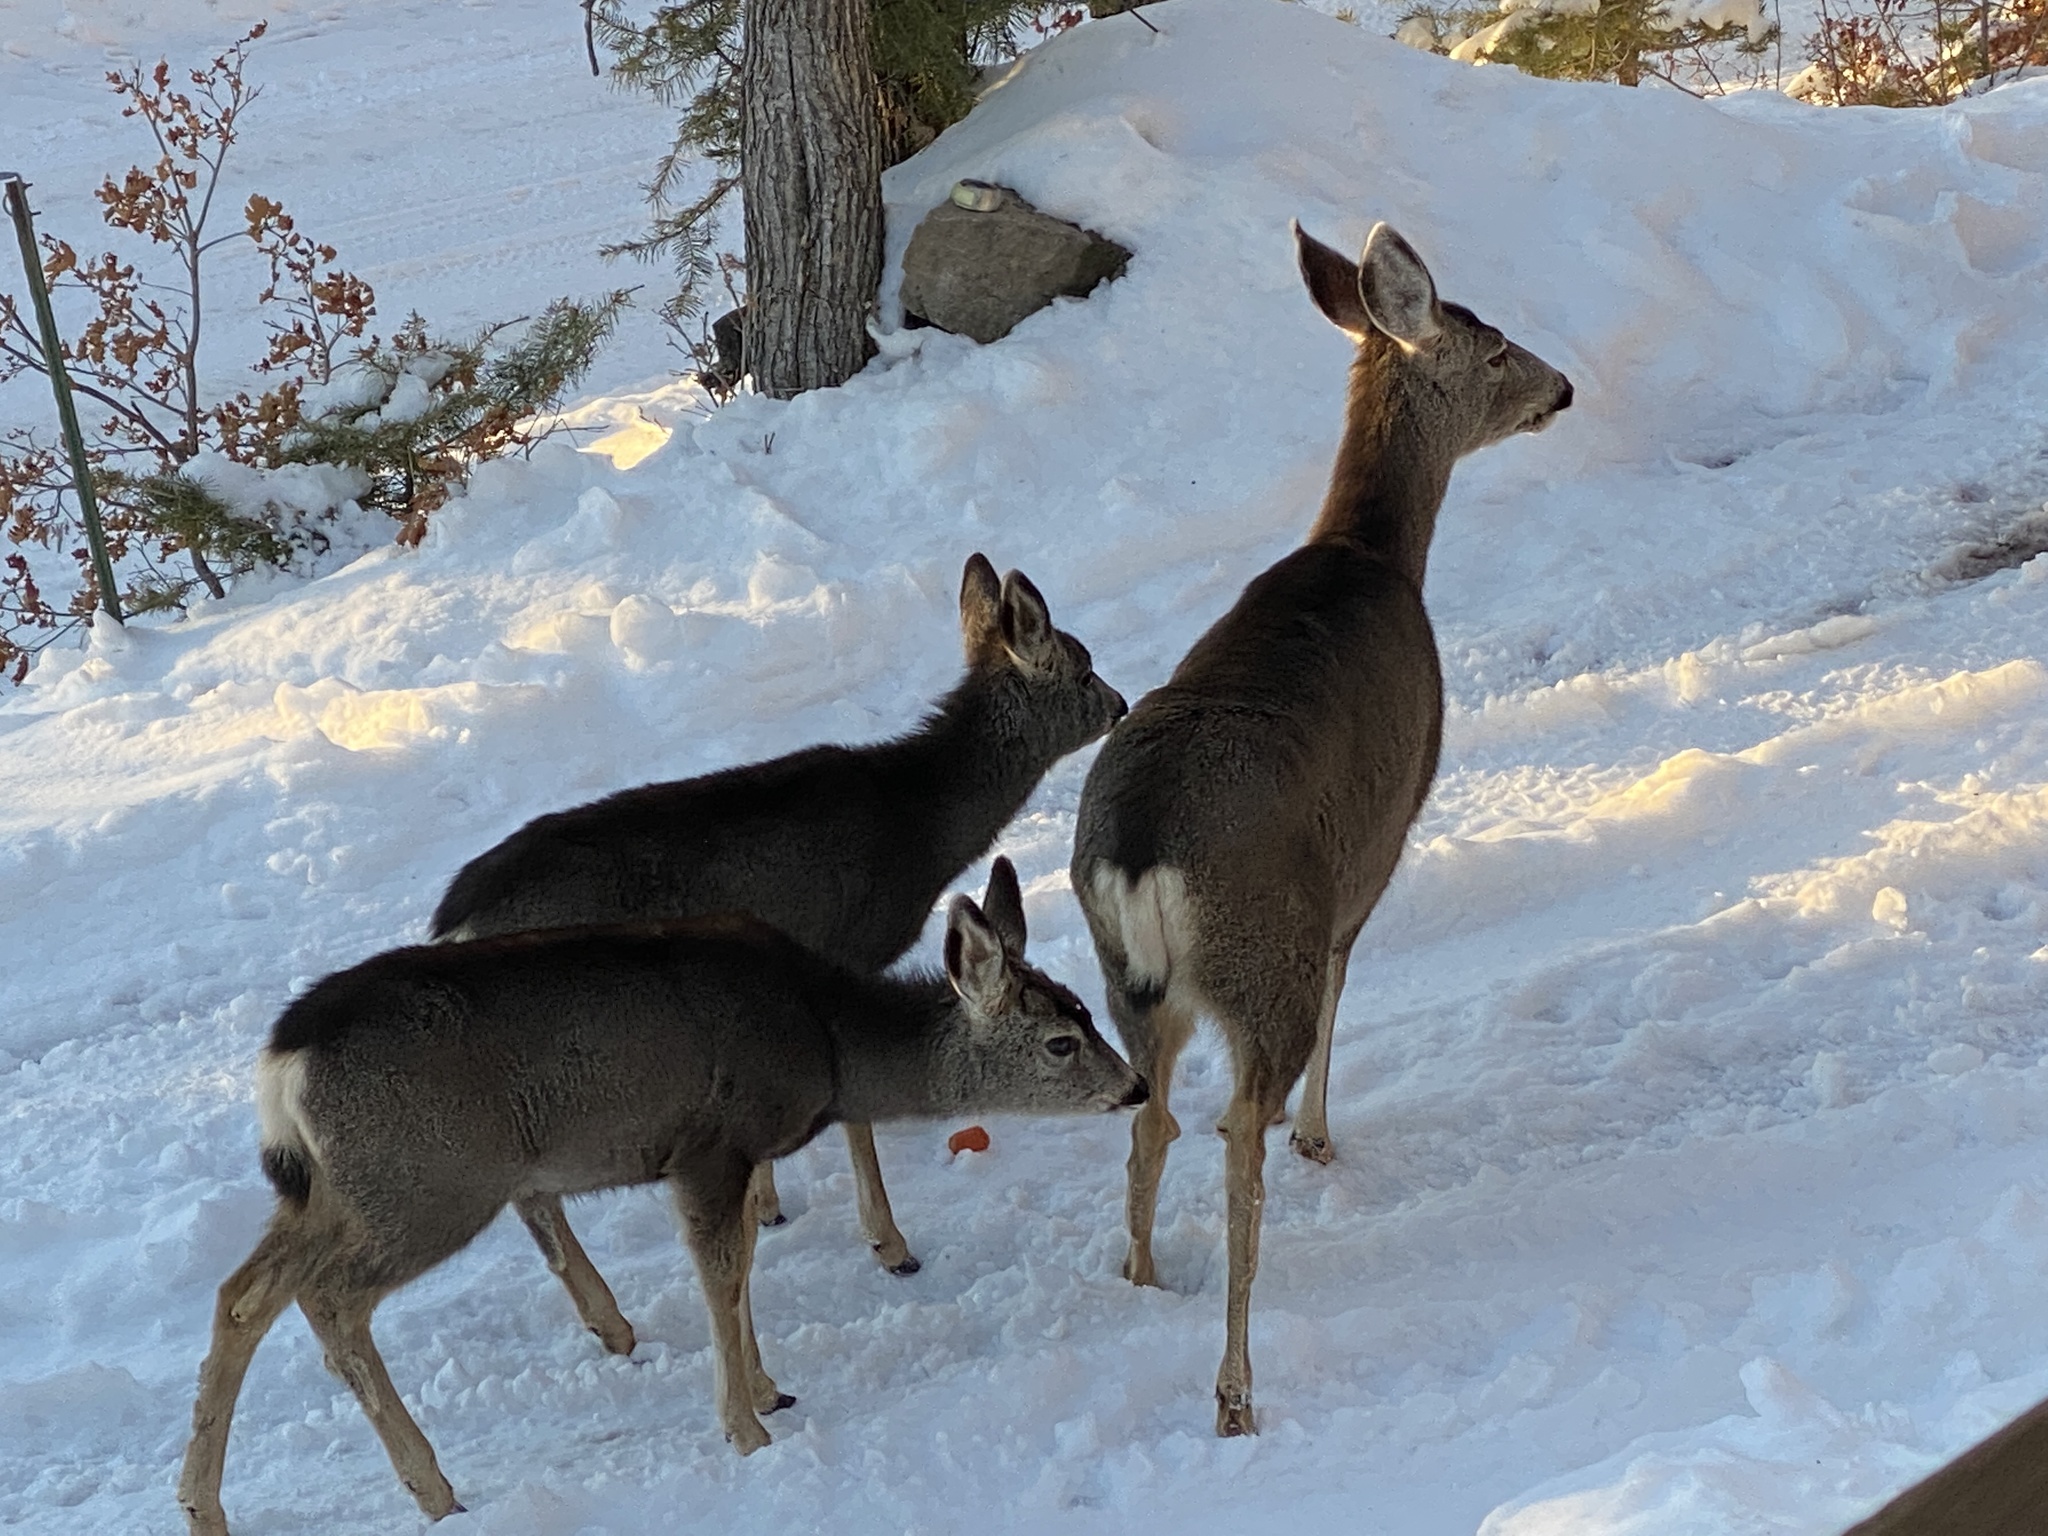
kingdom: Animalia
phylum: Chordata
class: Mammalia
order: Artiodactyla
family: Cervidae
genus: Odocoileus
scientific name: Odocoileus hemionus
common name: Mule deer
